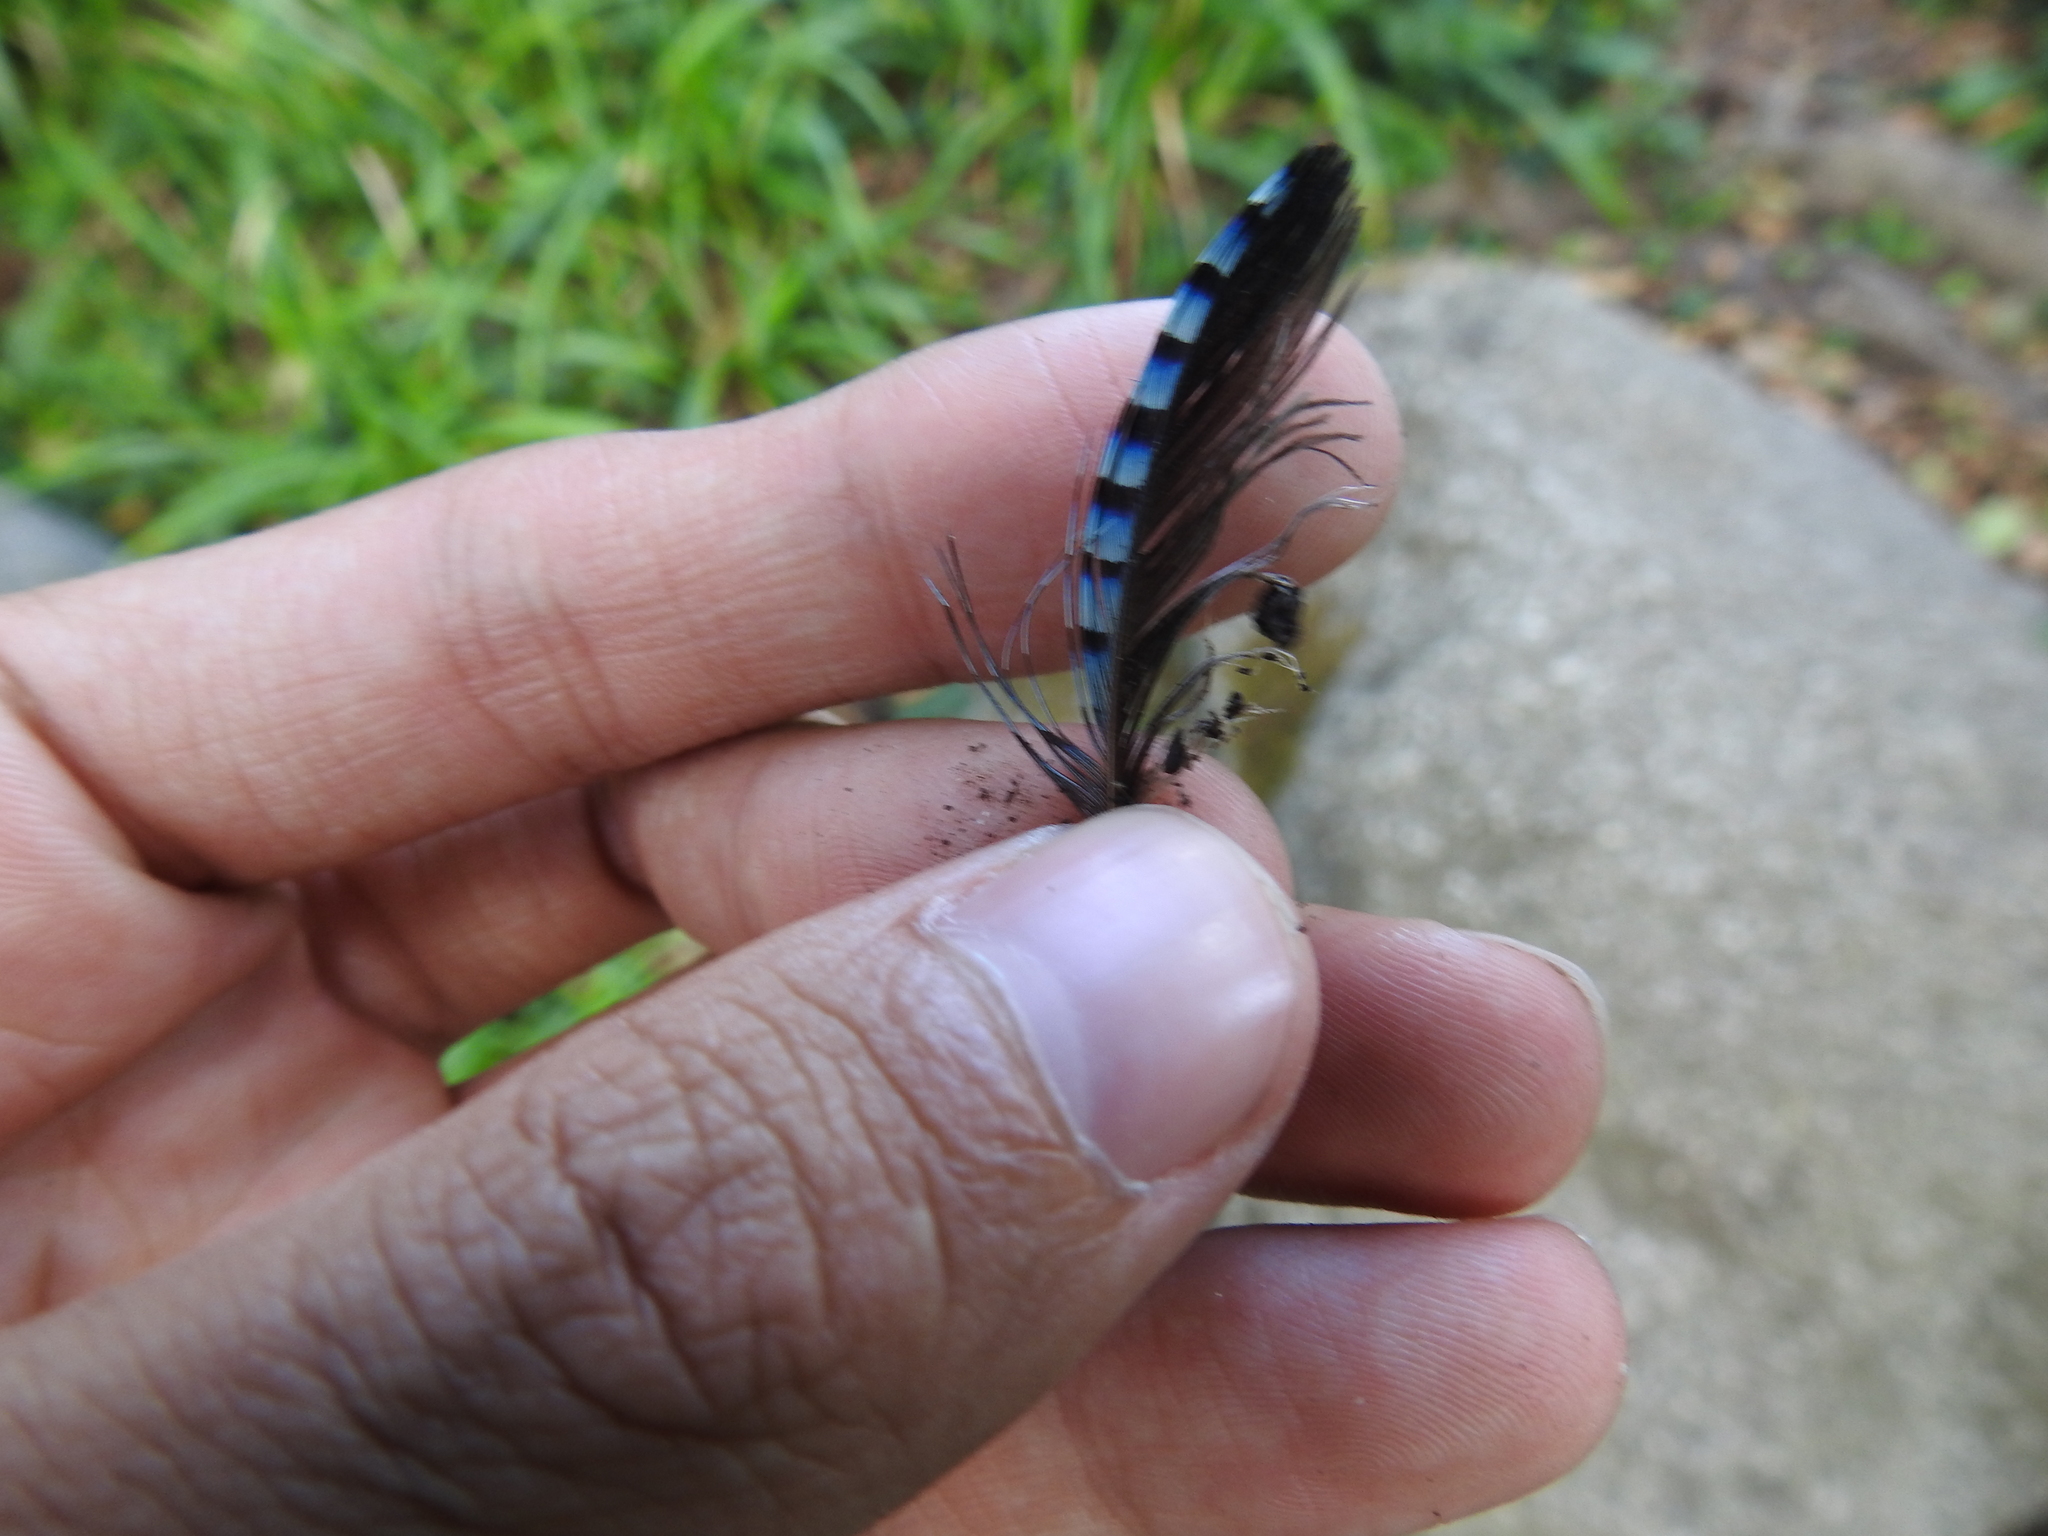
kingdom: Animalia
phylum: Chordata
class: Aves
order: Passeriformes
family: Corvidae
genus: Garrulus
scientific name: Garrulus glandarius
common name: Eurasian jay
